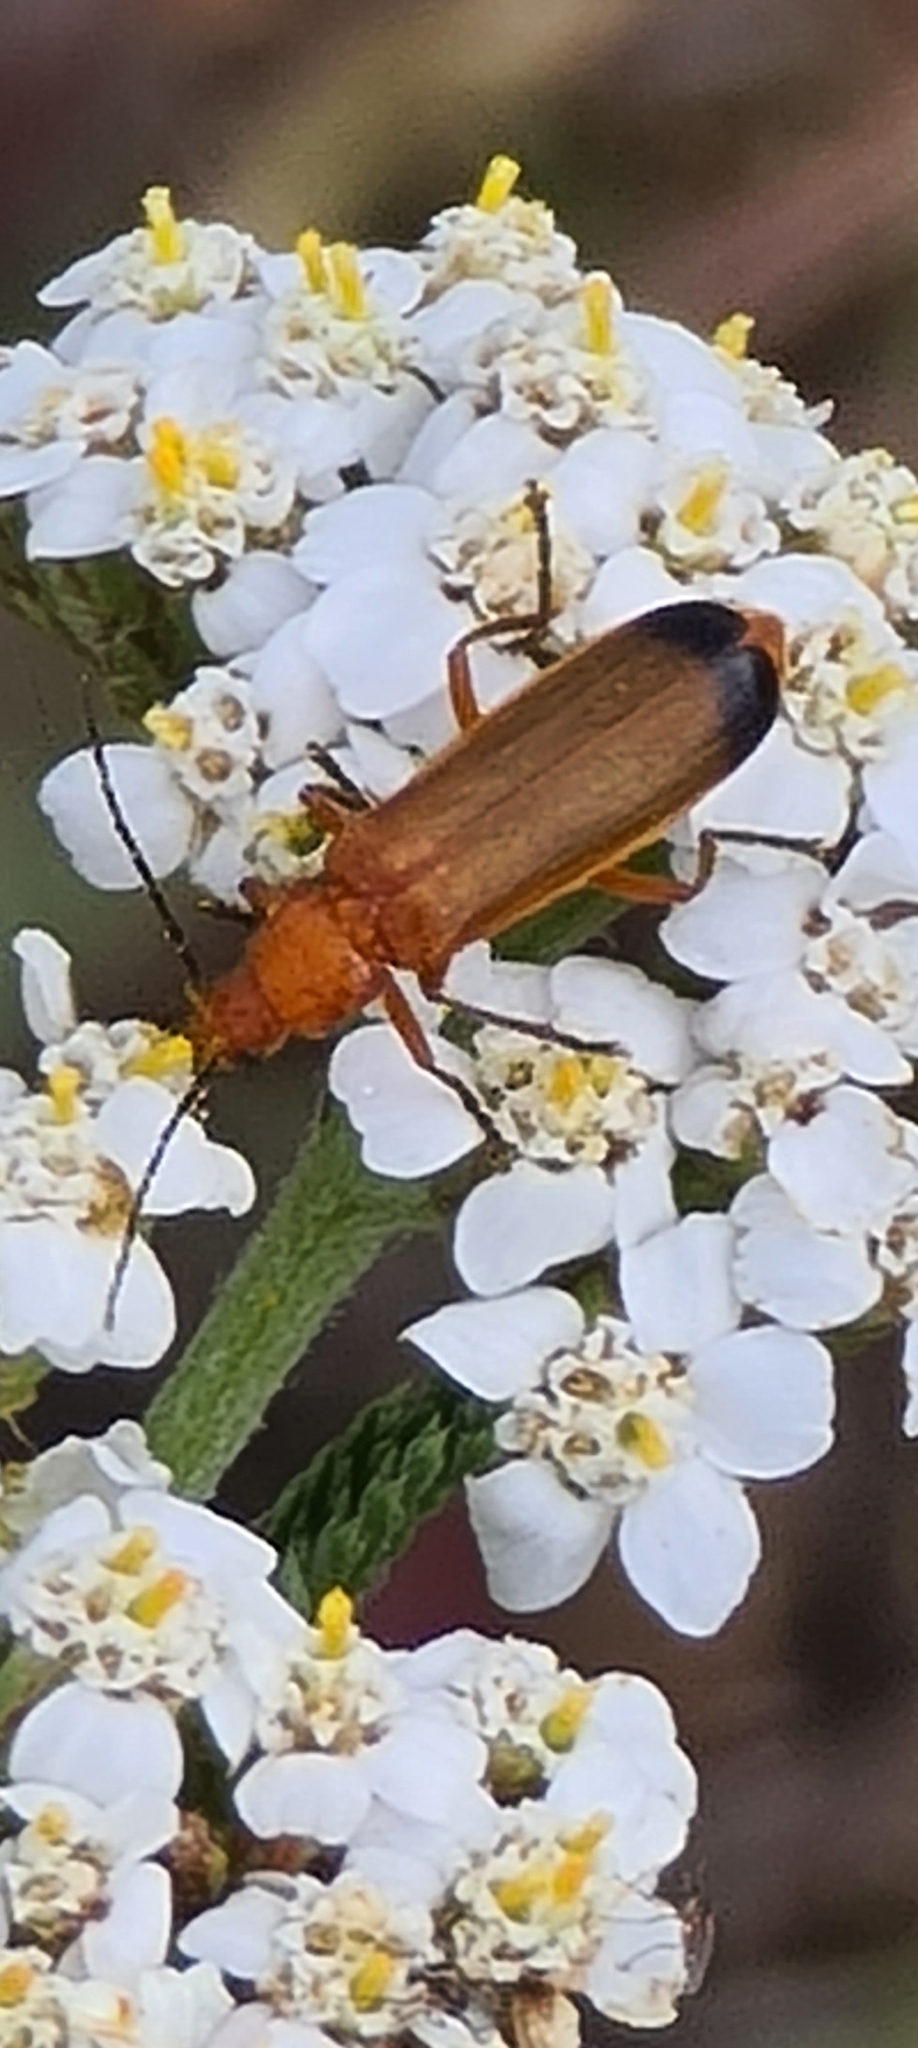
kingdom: Animalia
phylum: Arthropoda
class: Insecta
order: Coleoptera
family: Cantharidae
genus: Rhagonycha
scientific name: Rhagonycha fulva
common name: Common red soldier beetle
